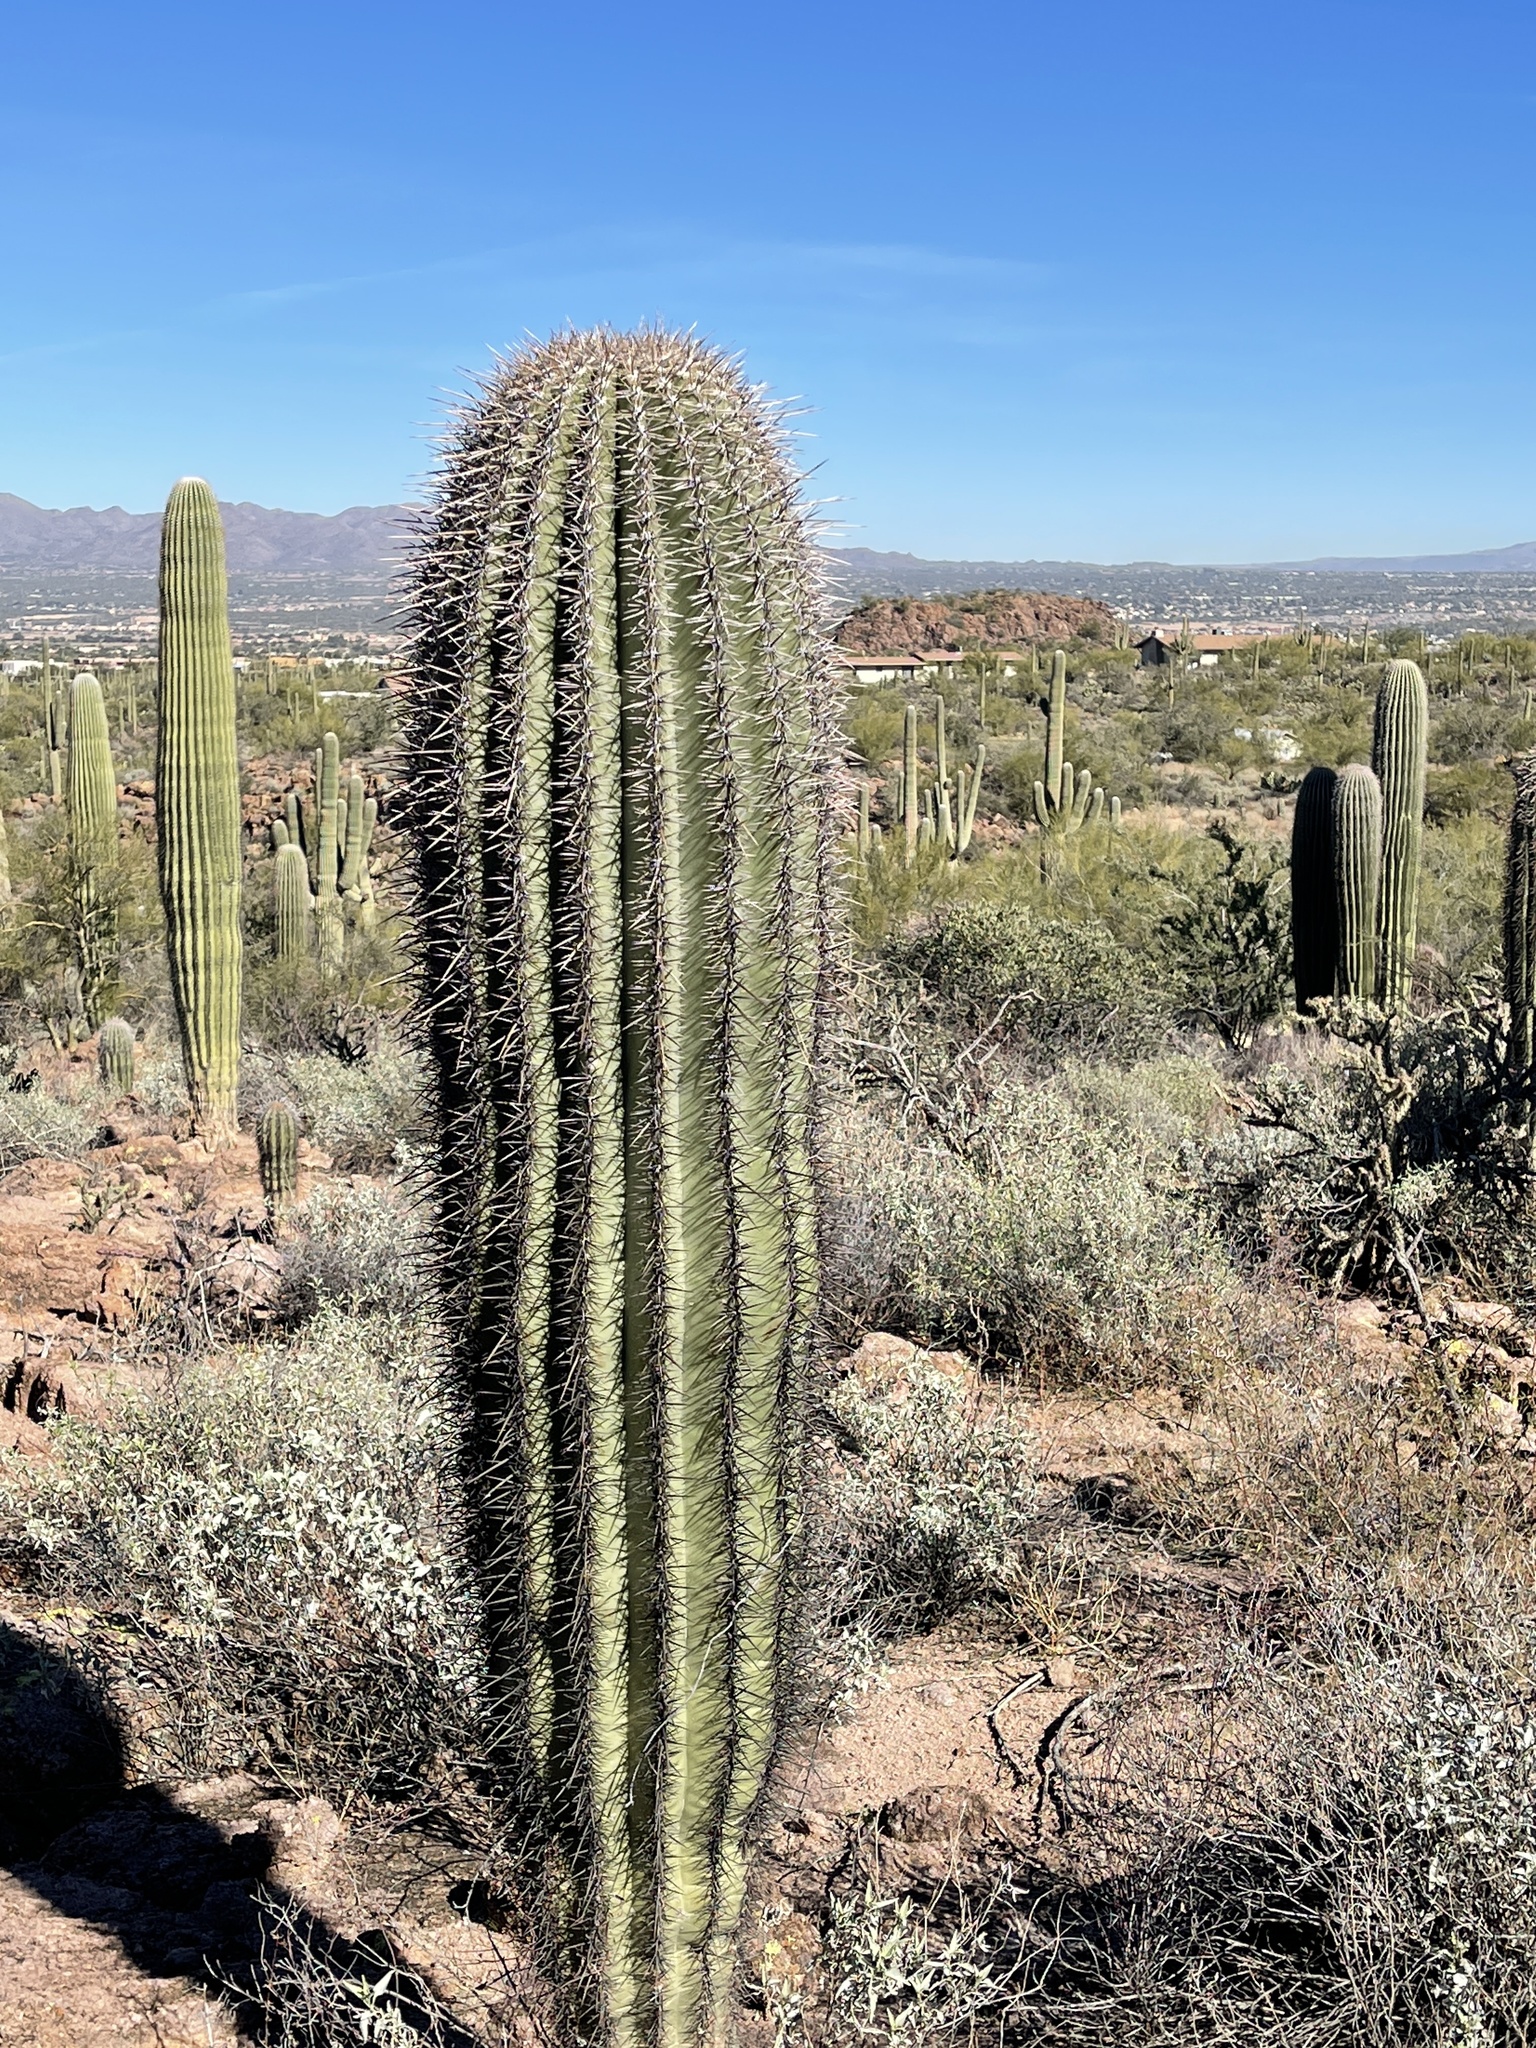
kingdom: Plantae
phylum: Tracheophyta
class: Magnoliopsida
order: Caryophyllales
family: Cactaceae
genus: Carnegiea
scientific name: Carnegiea gigantea
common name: Saguaro
